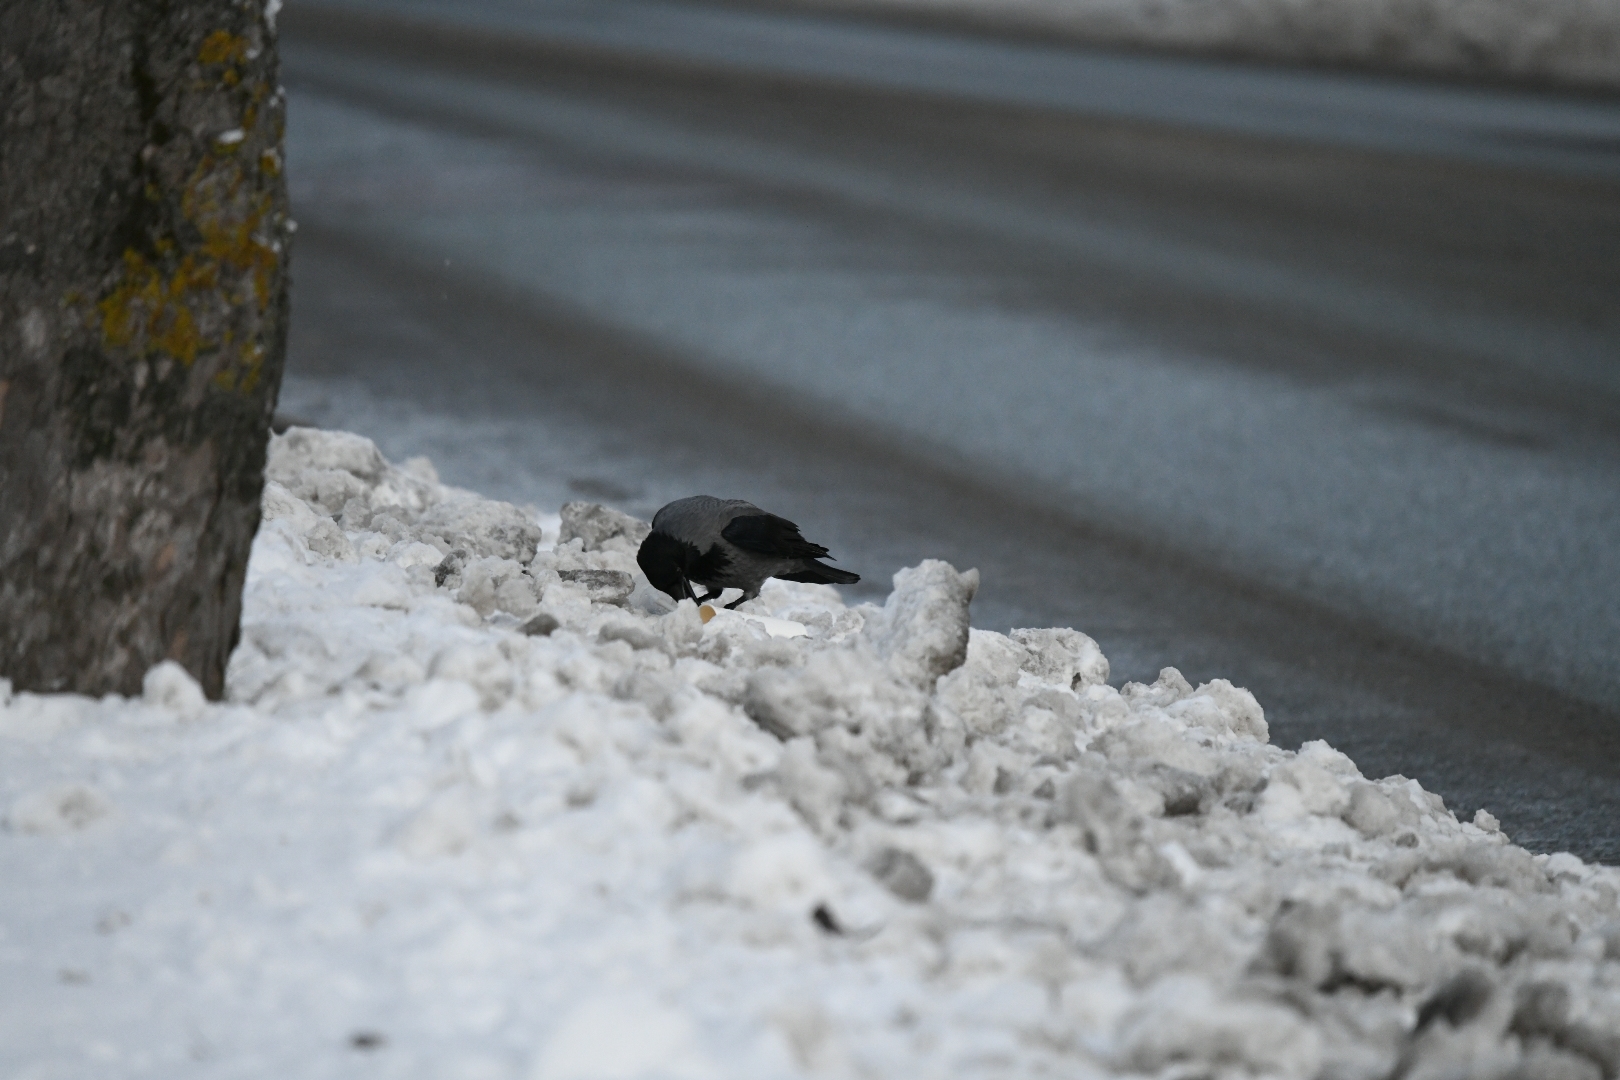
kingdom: Animalia
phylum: Chordata
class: Aves
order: Passeriformes
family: Corvidae
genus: Corvus
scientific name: Corvus cornix
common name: Hooded crow
